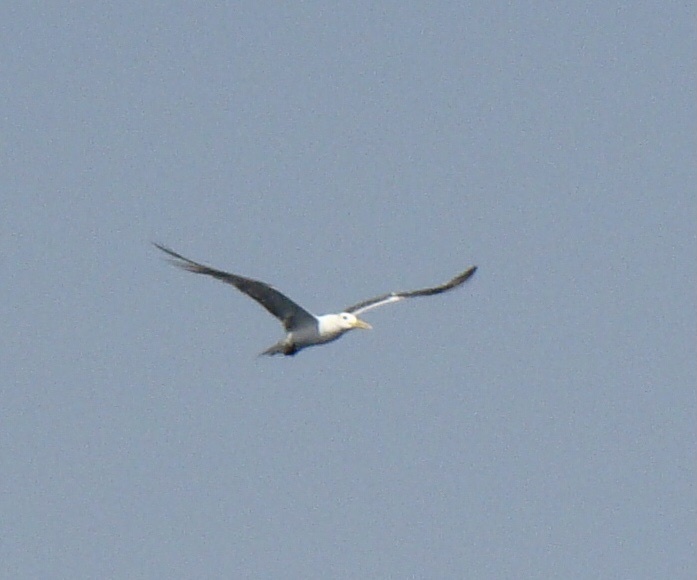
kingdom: Animalia
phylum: Chordata
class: Aves
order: Charadriiformes
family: Laridae
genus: Thalasseus
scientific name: Thalasseus bergii
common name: Greater crested tern
